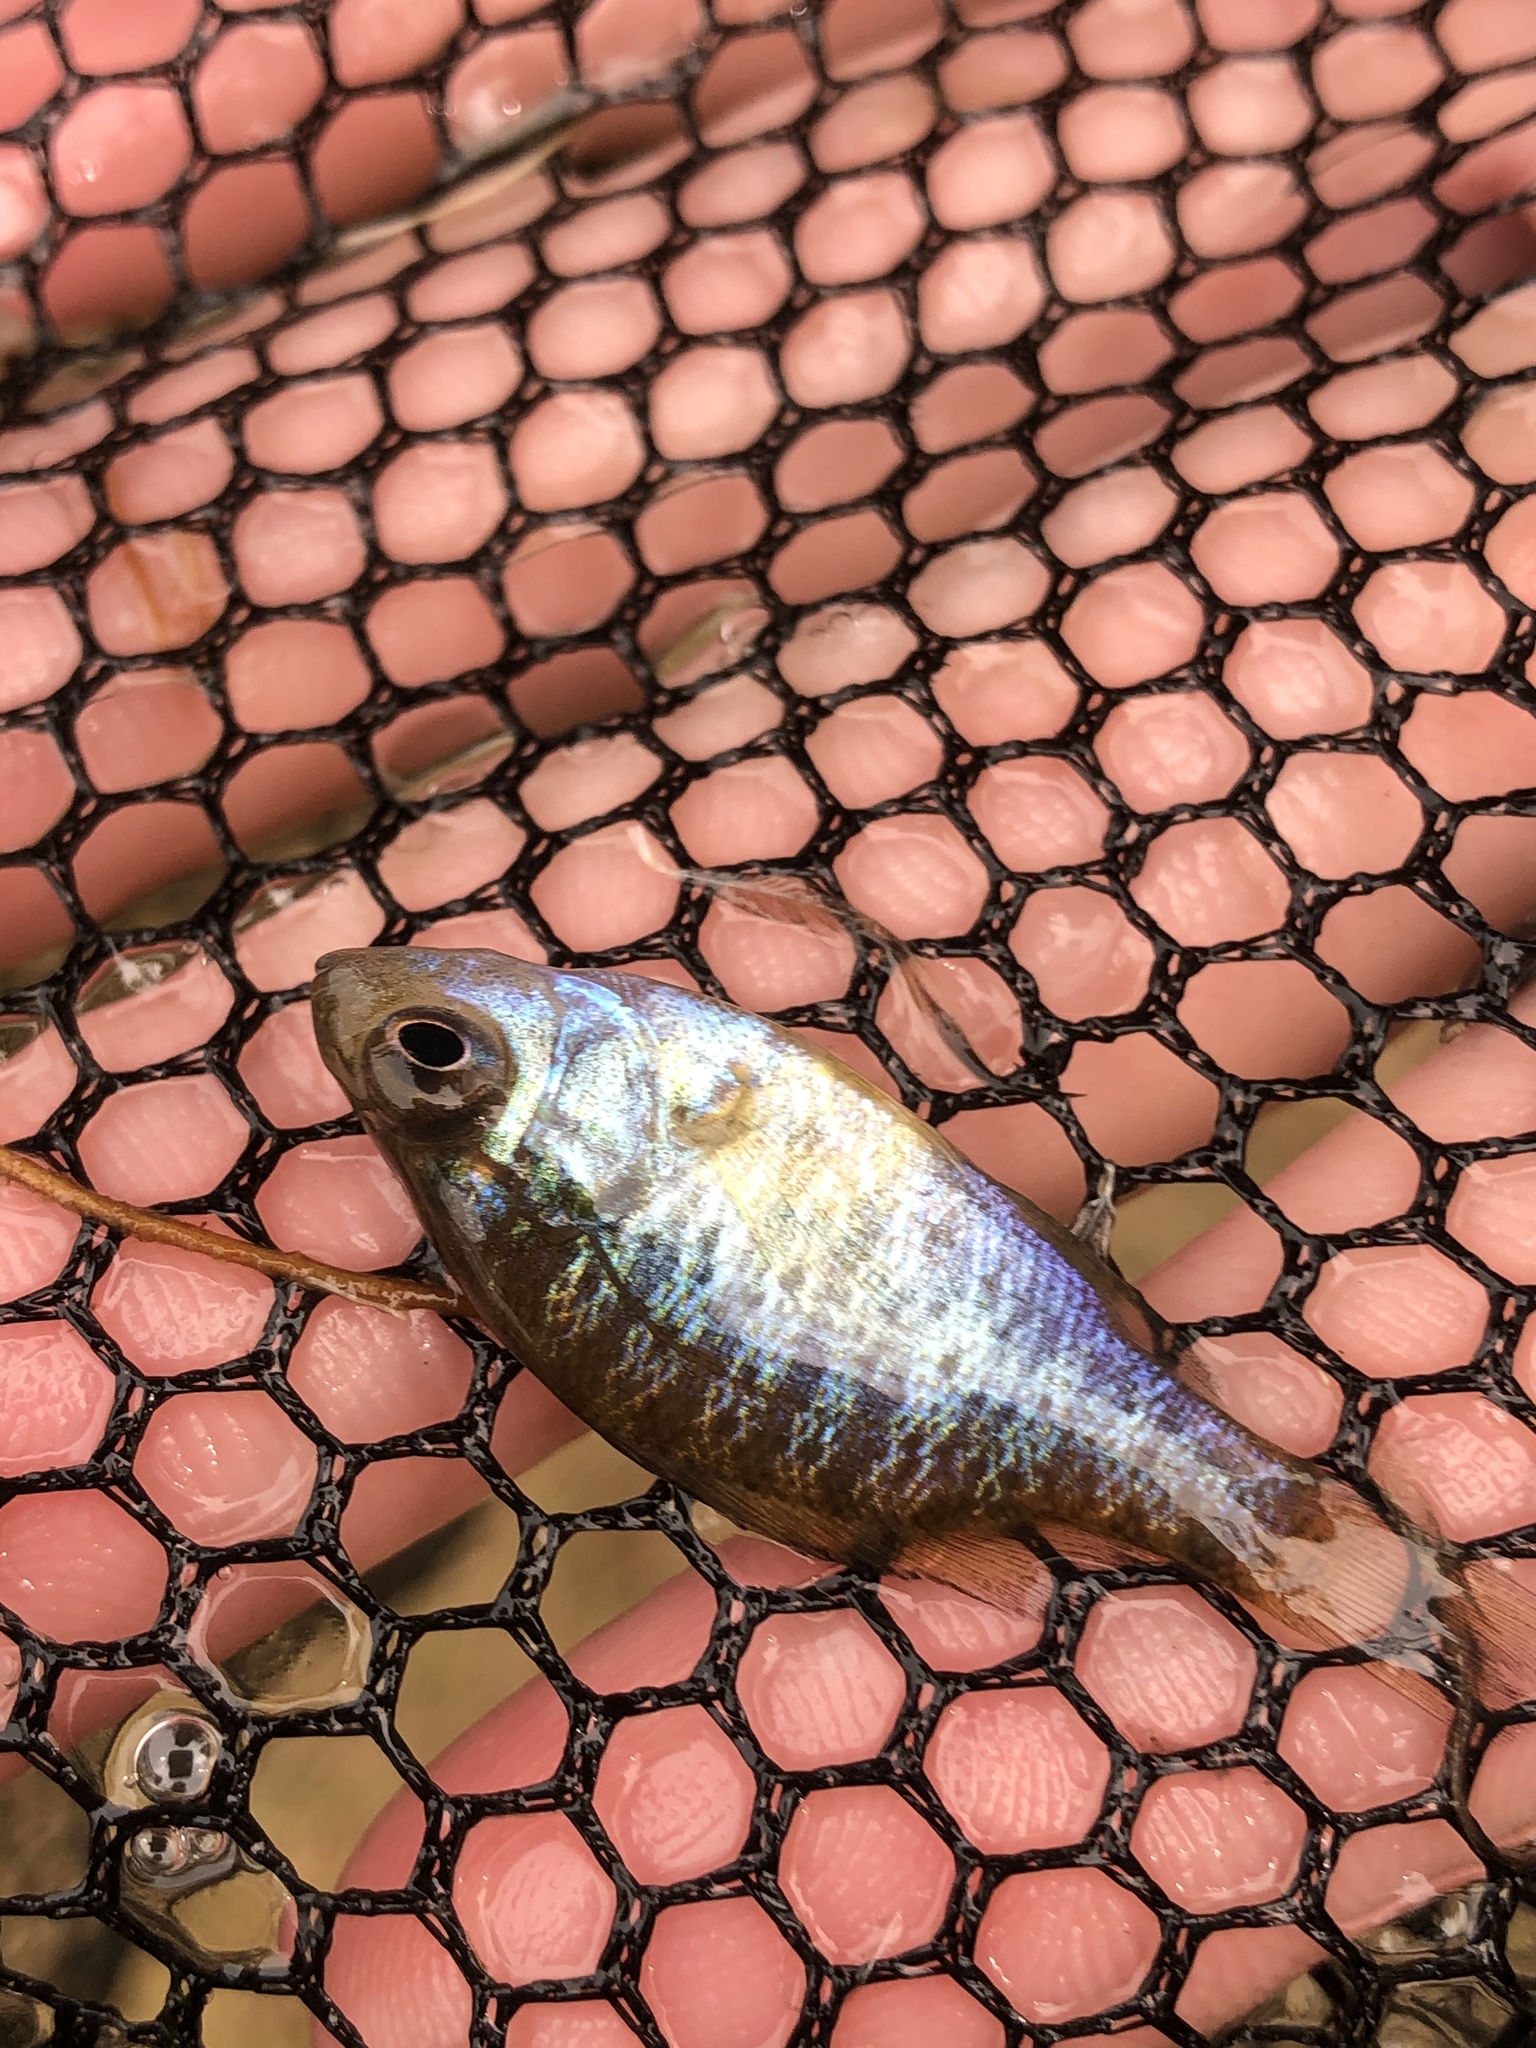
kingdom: Animalia
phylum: Chordata
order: Perciformes
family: Centrarchidae
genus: Lepomis
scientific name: Lepomis gibbosus
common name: Pumpkinseed
